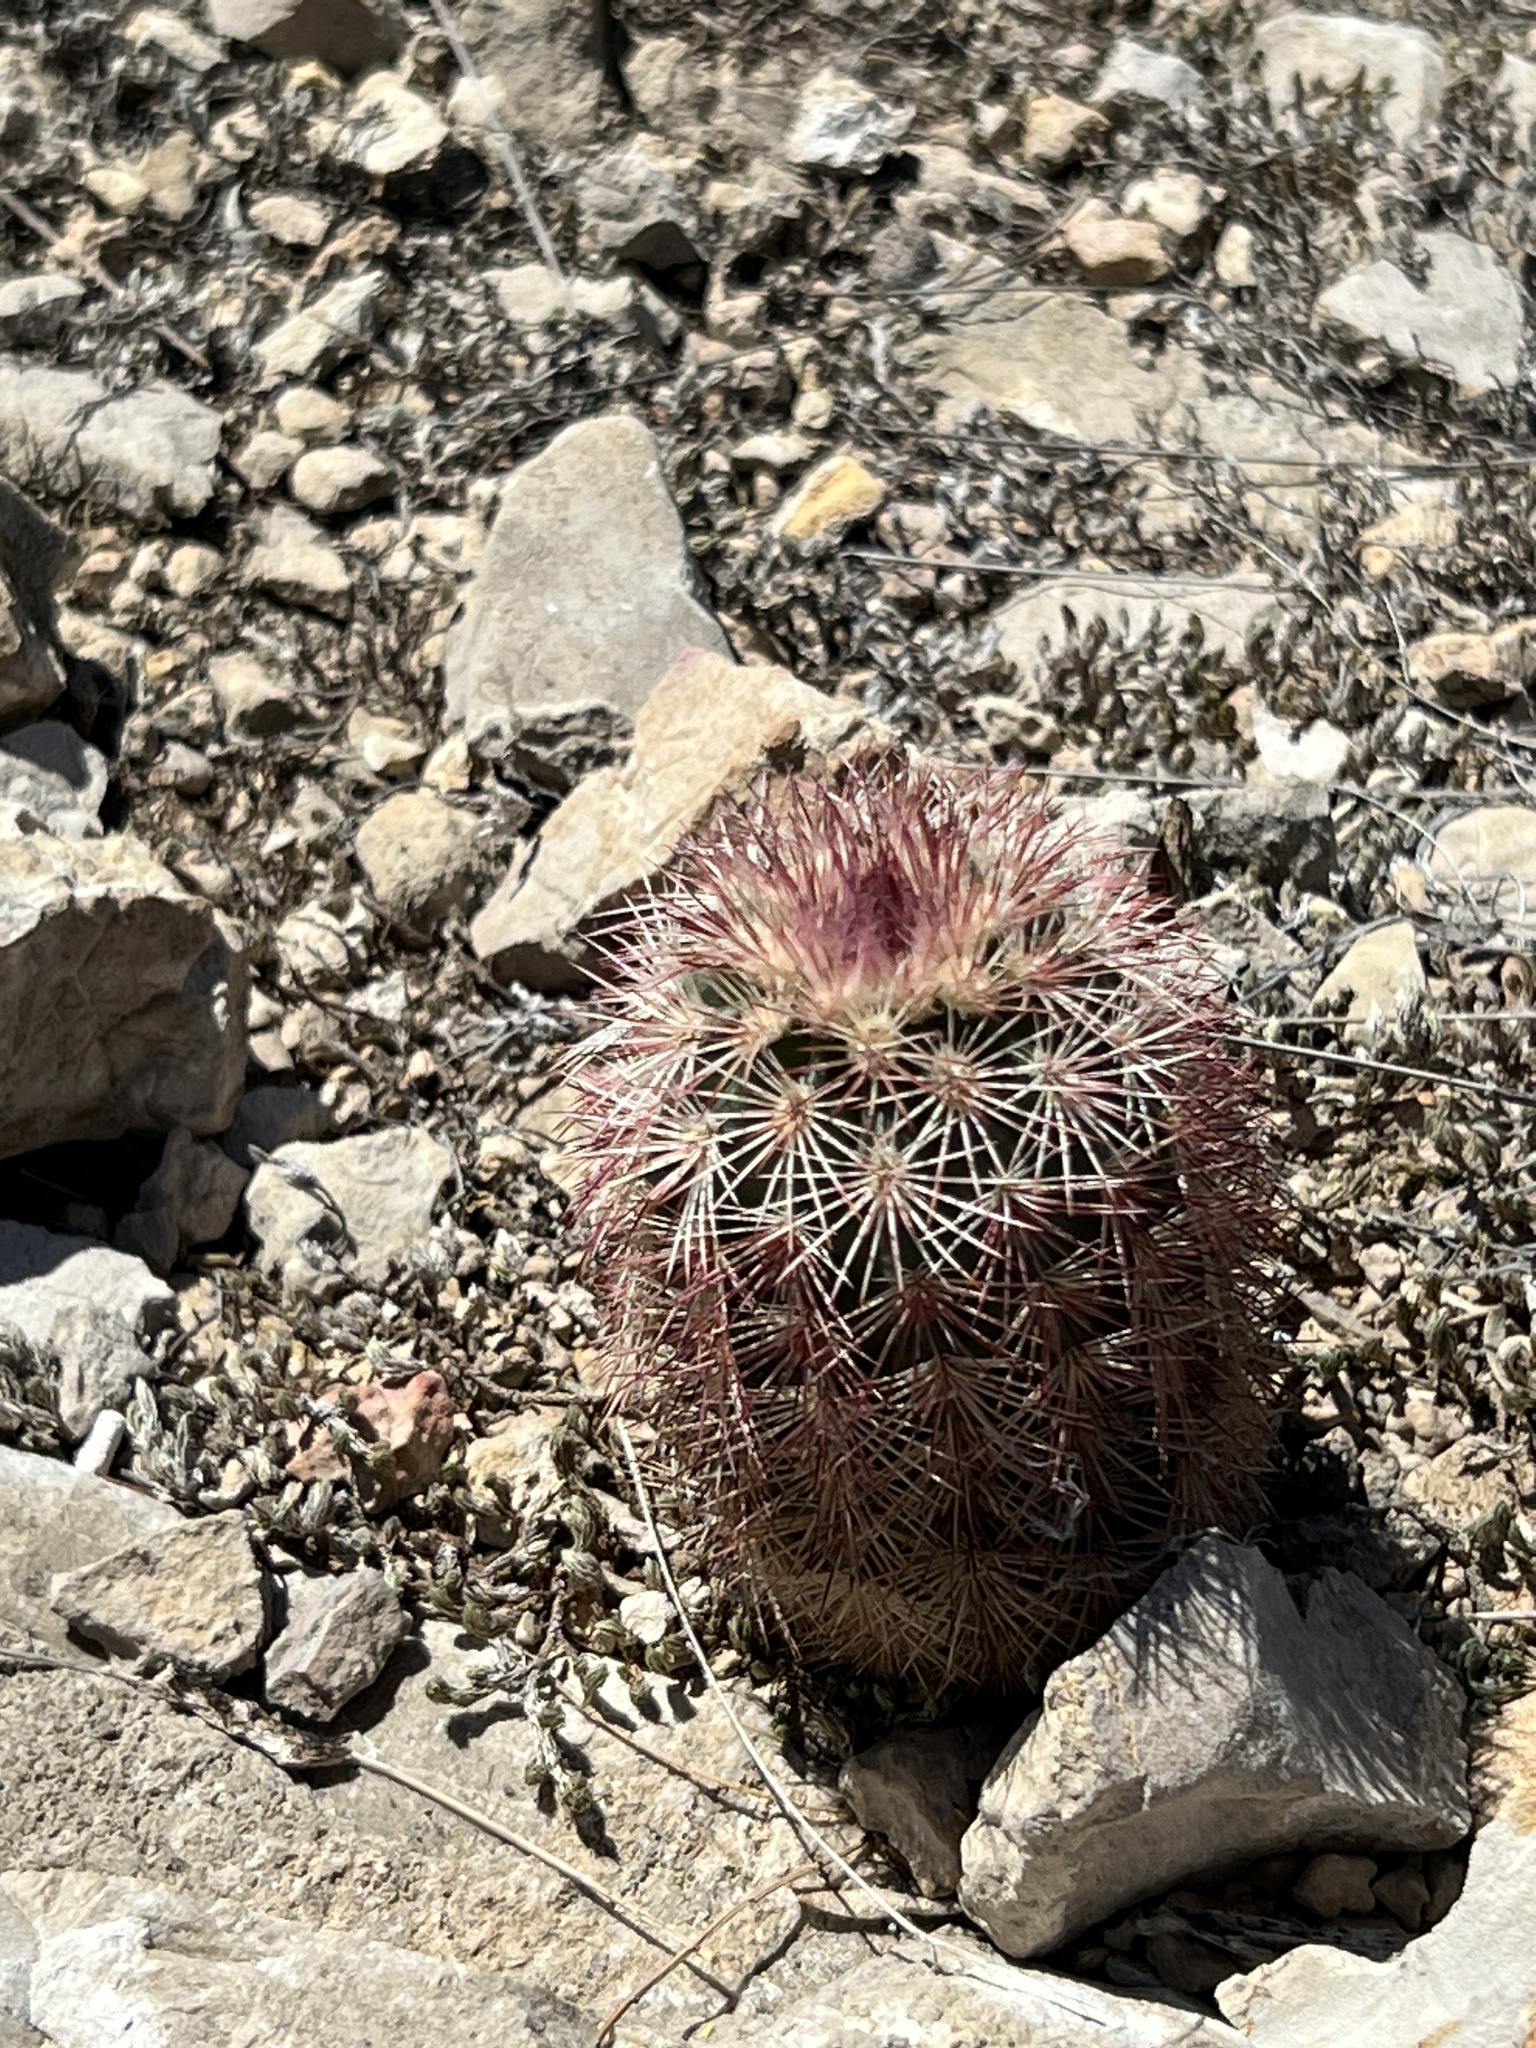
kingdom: Plantae
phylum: Tracheophyta
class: Magnoliopsida
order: Caryophyllales
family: Cactaceae
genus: Echinocereus
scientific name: Echinocereus dasyacanthus
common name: Spiny hedgehog cactus
